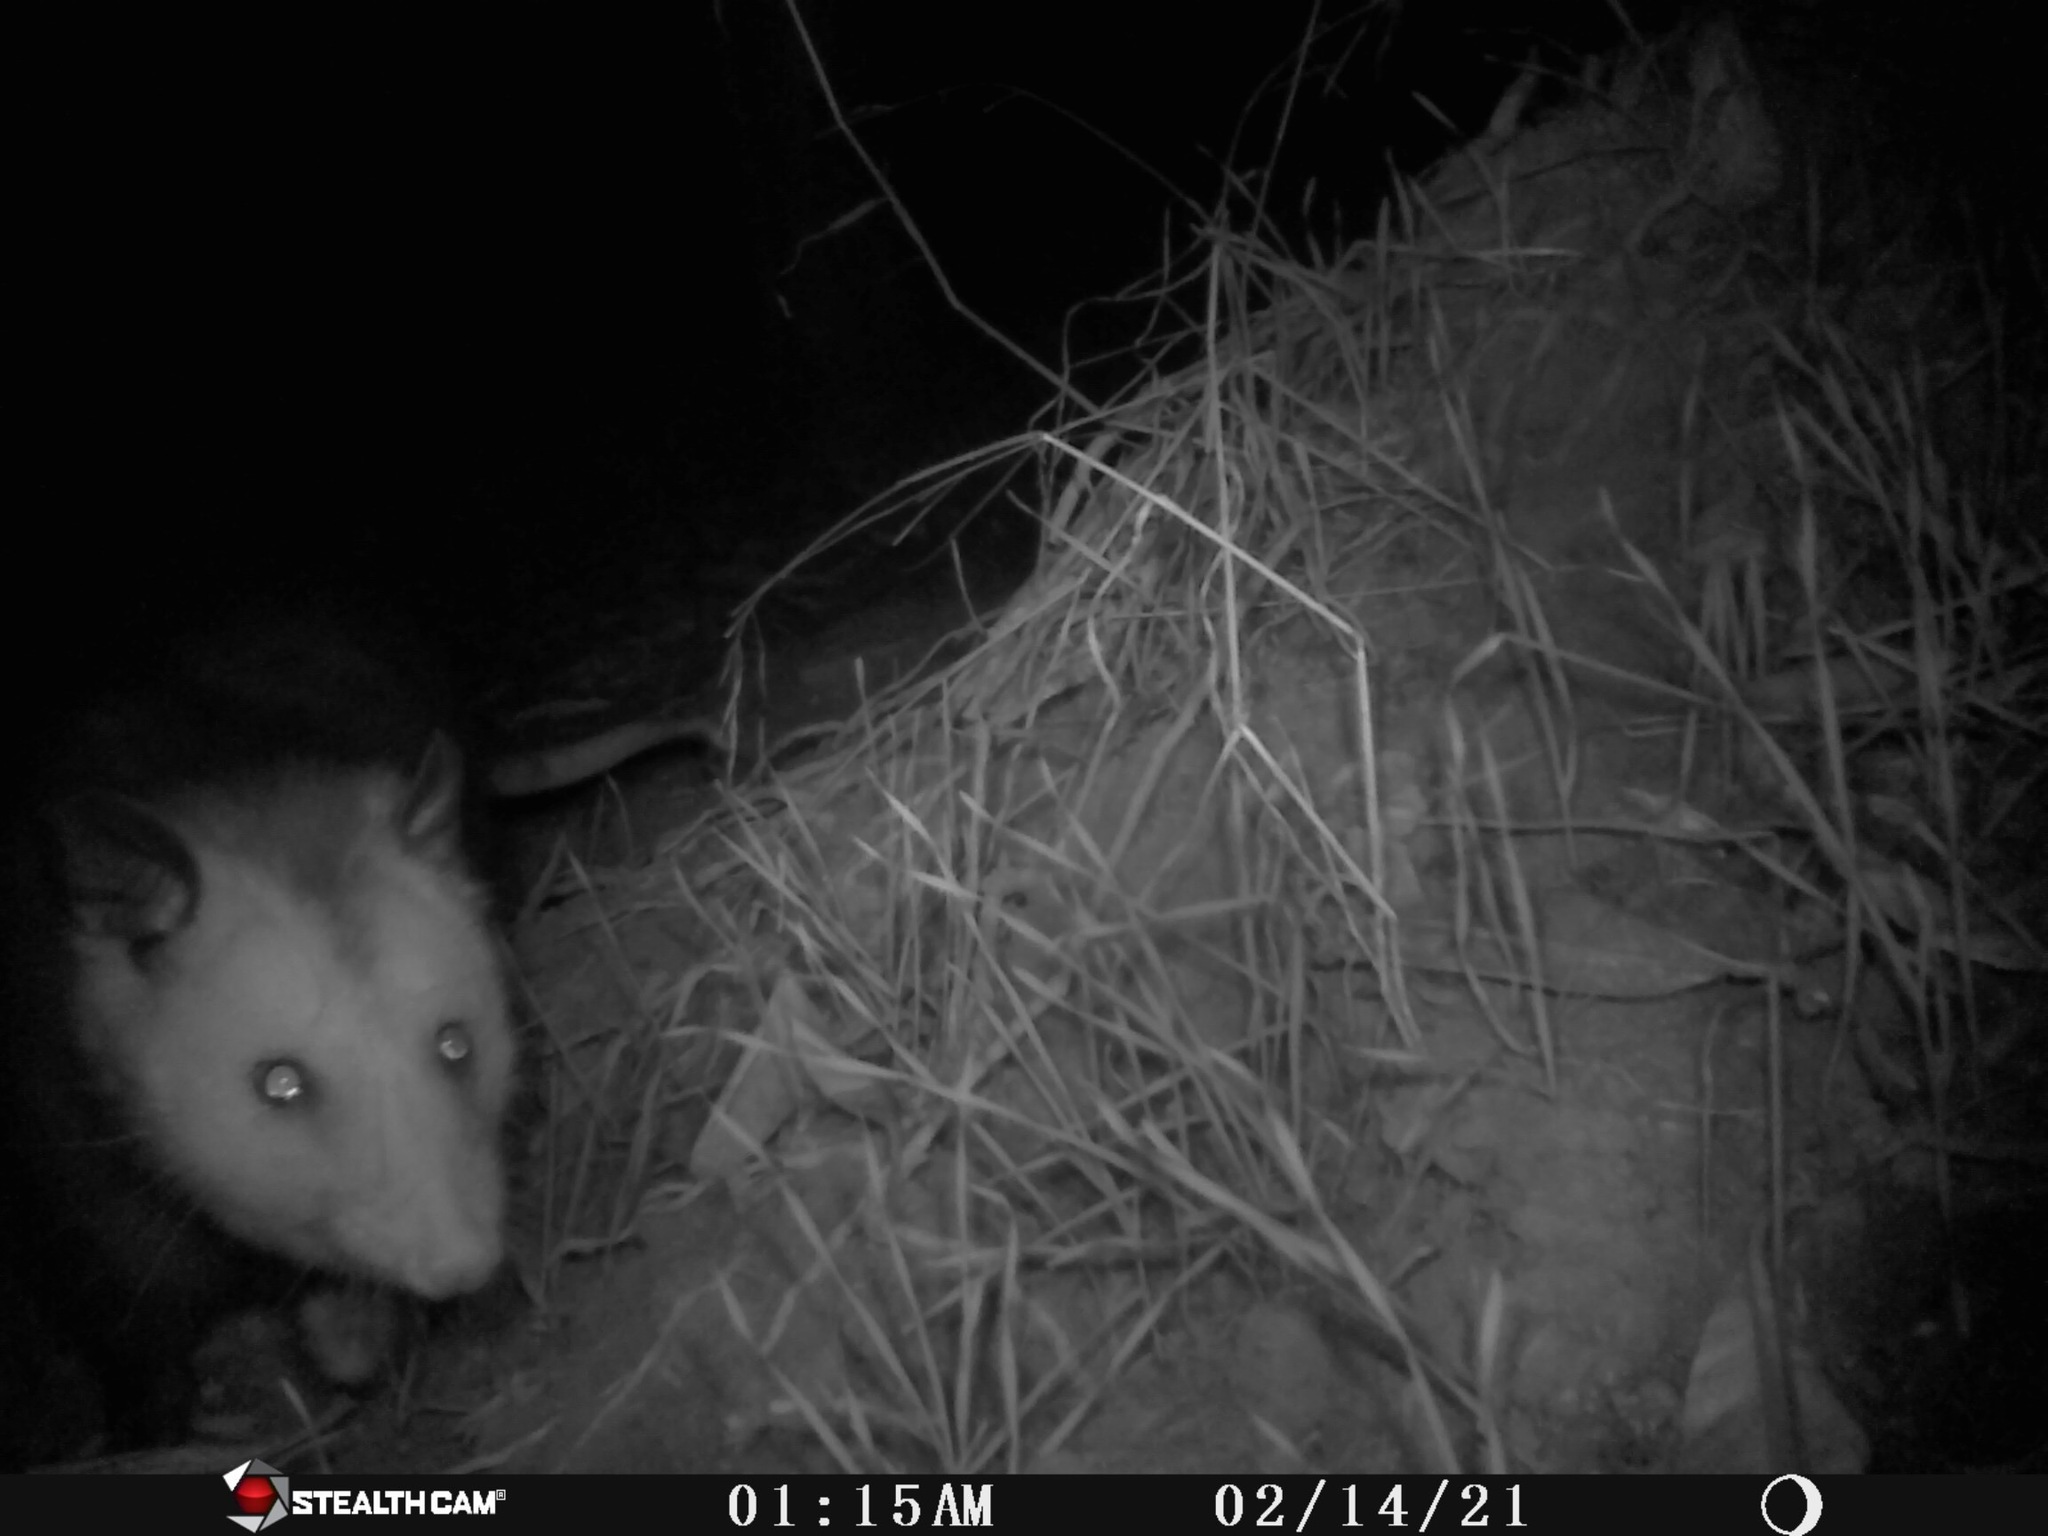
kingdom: Animalia
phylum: Chordata
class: Mammalia
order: Didelphimorphia
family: Didelphidae
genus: Didelphis
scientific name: Didelphis virginiana
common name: Virginia opossum
